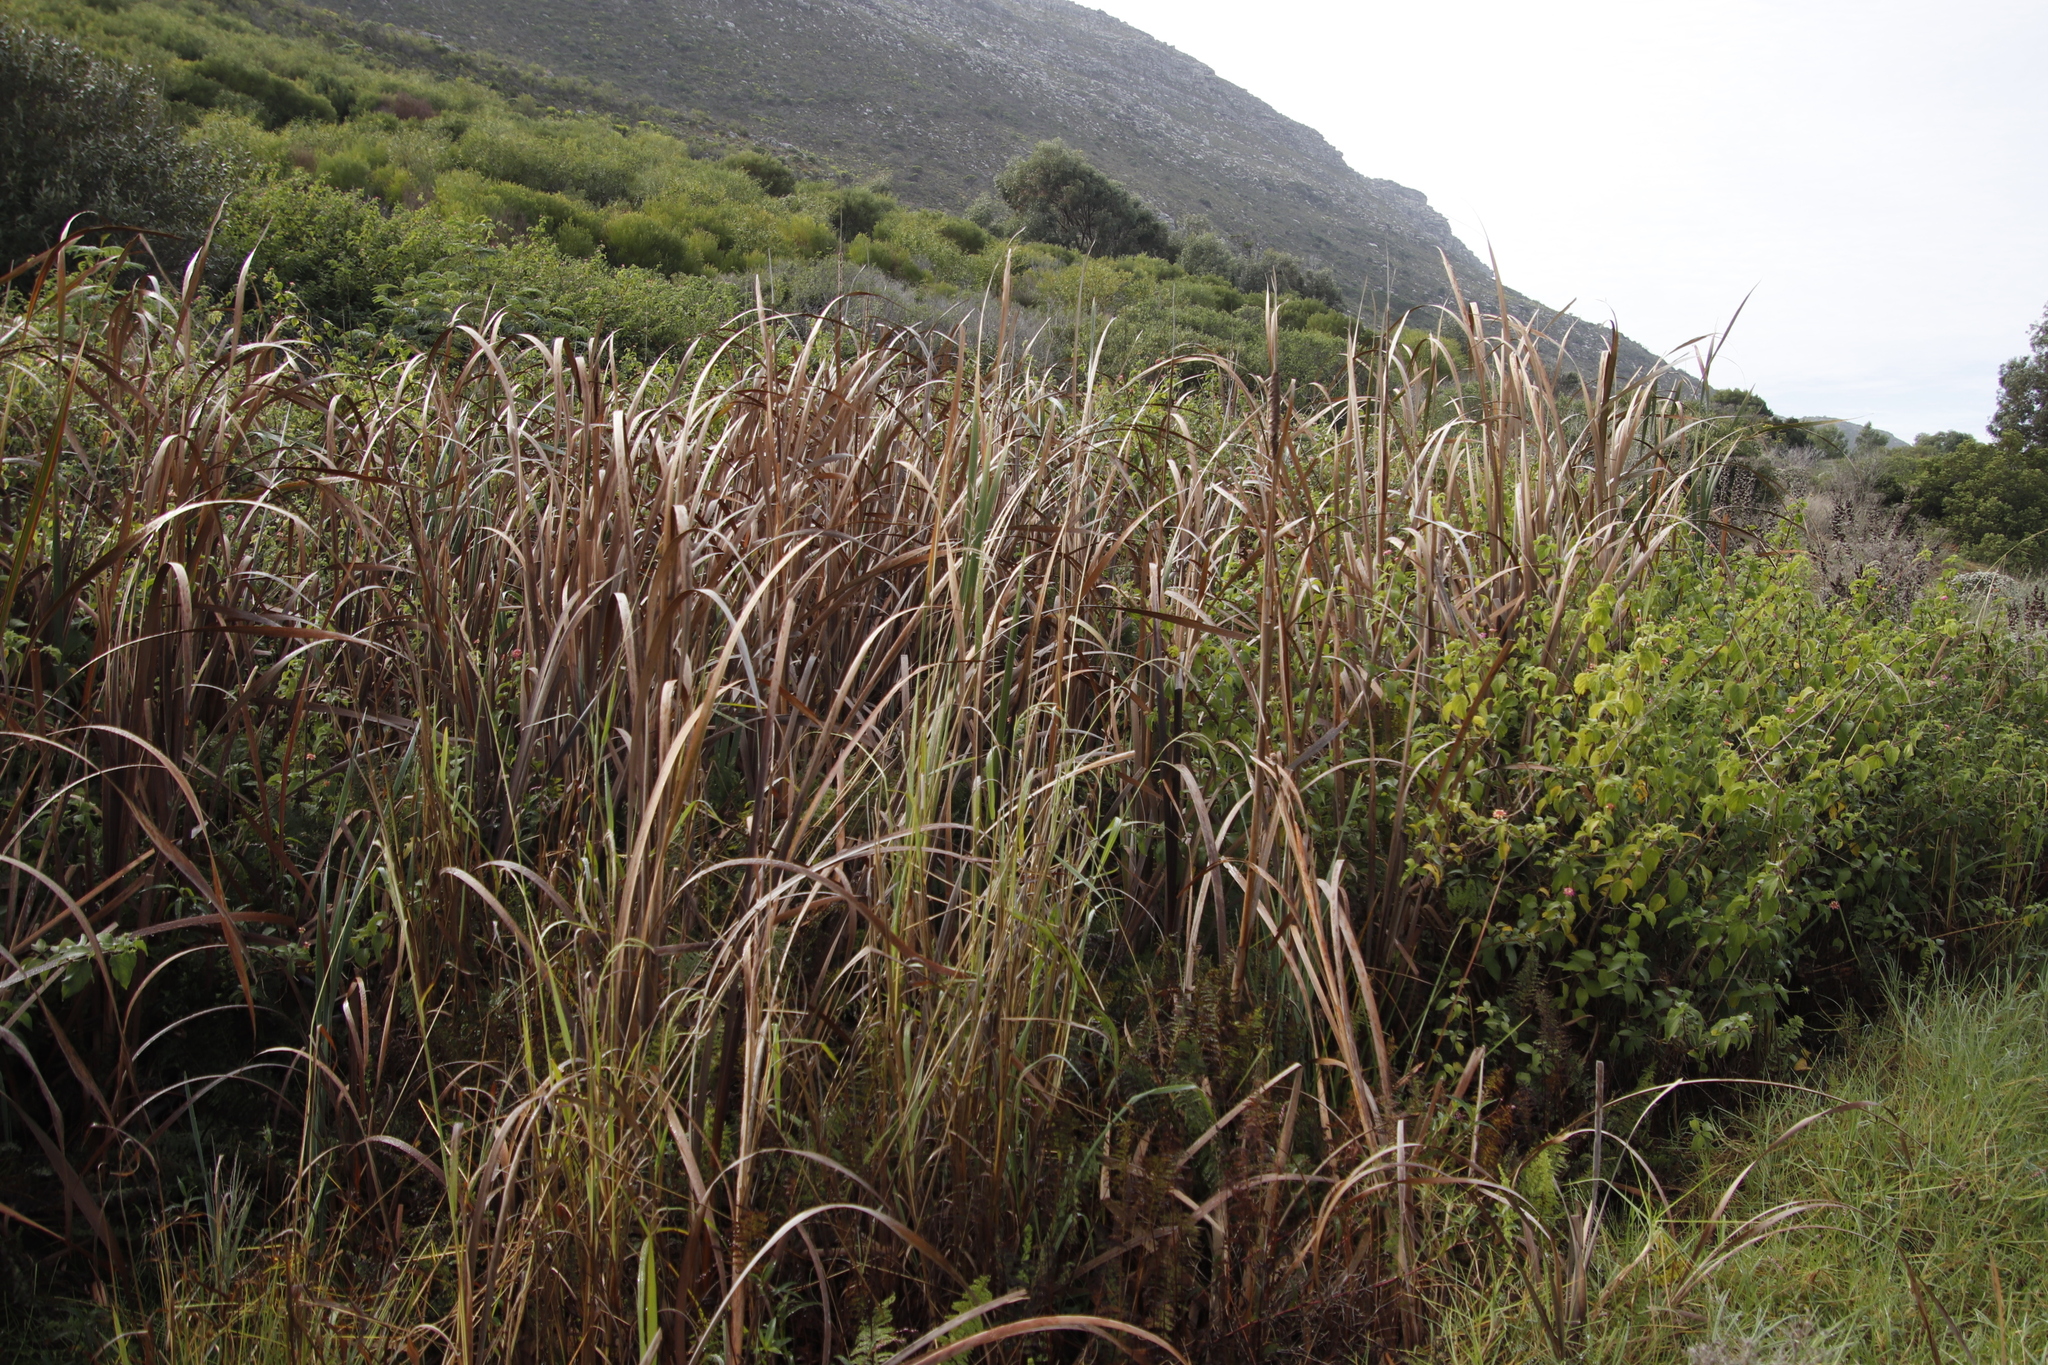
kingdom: Plantae
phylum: Tracheophyta
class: Liliopsida
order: Poales
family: Typhaceae
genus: Typha
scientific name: Typha capensis
